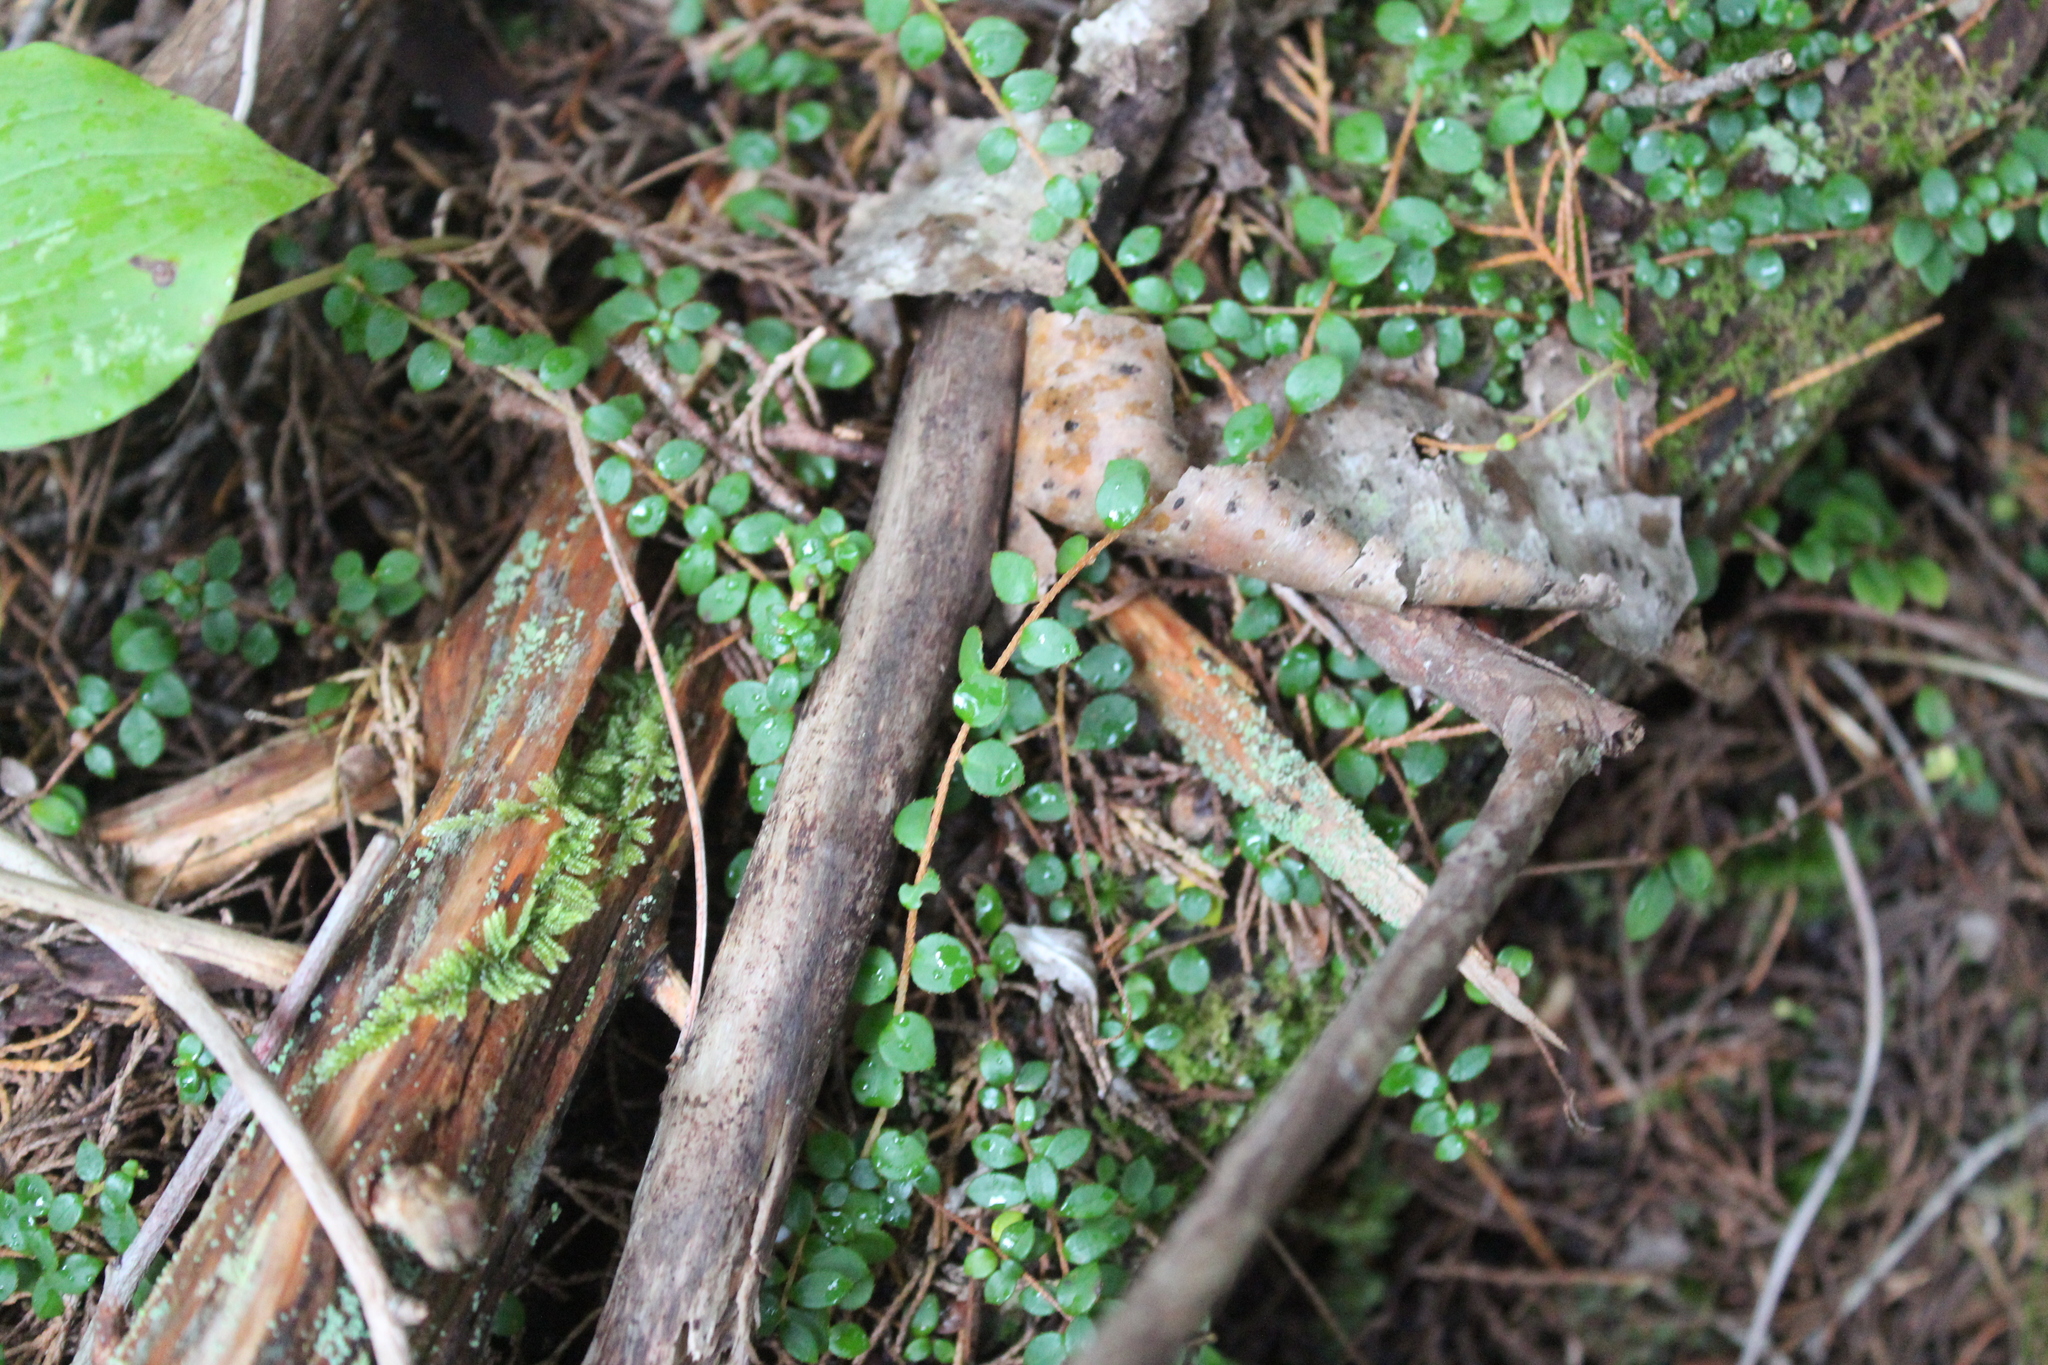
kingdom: Plantae
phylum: Tracheophyta
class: Magnoliopsida
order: Ericales
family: Ericaceae
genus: Gaultheria
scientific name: Gaultheria hispidula
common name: Cancer wintergreen
